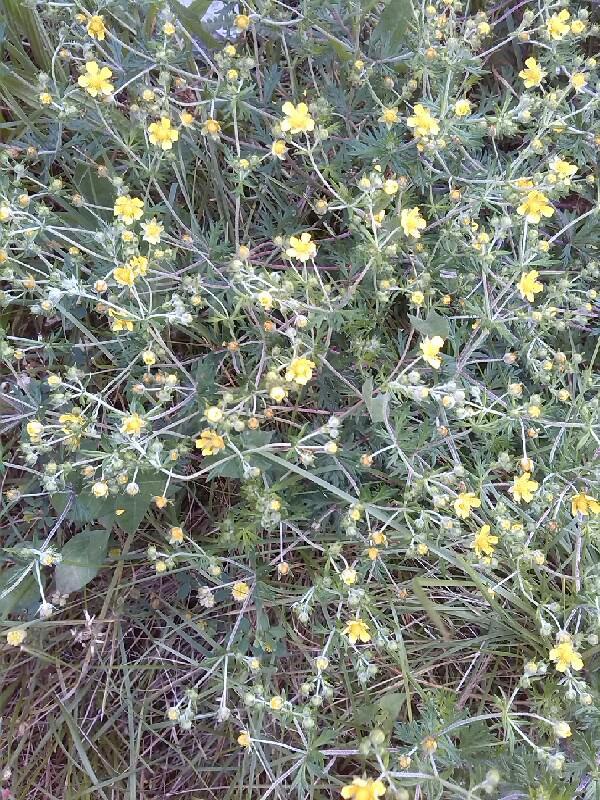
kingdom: Plantae
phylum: Tracheophyta
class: Magnoliopsida
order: Rosales
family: Rosaceae
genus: Potentilla
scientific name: Potentilla argentea
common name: Hoary cinquefoil
